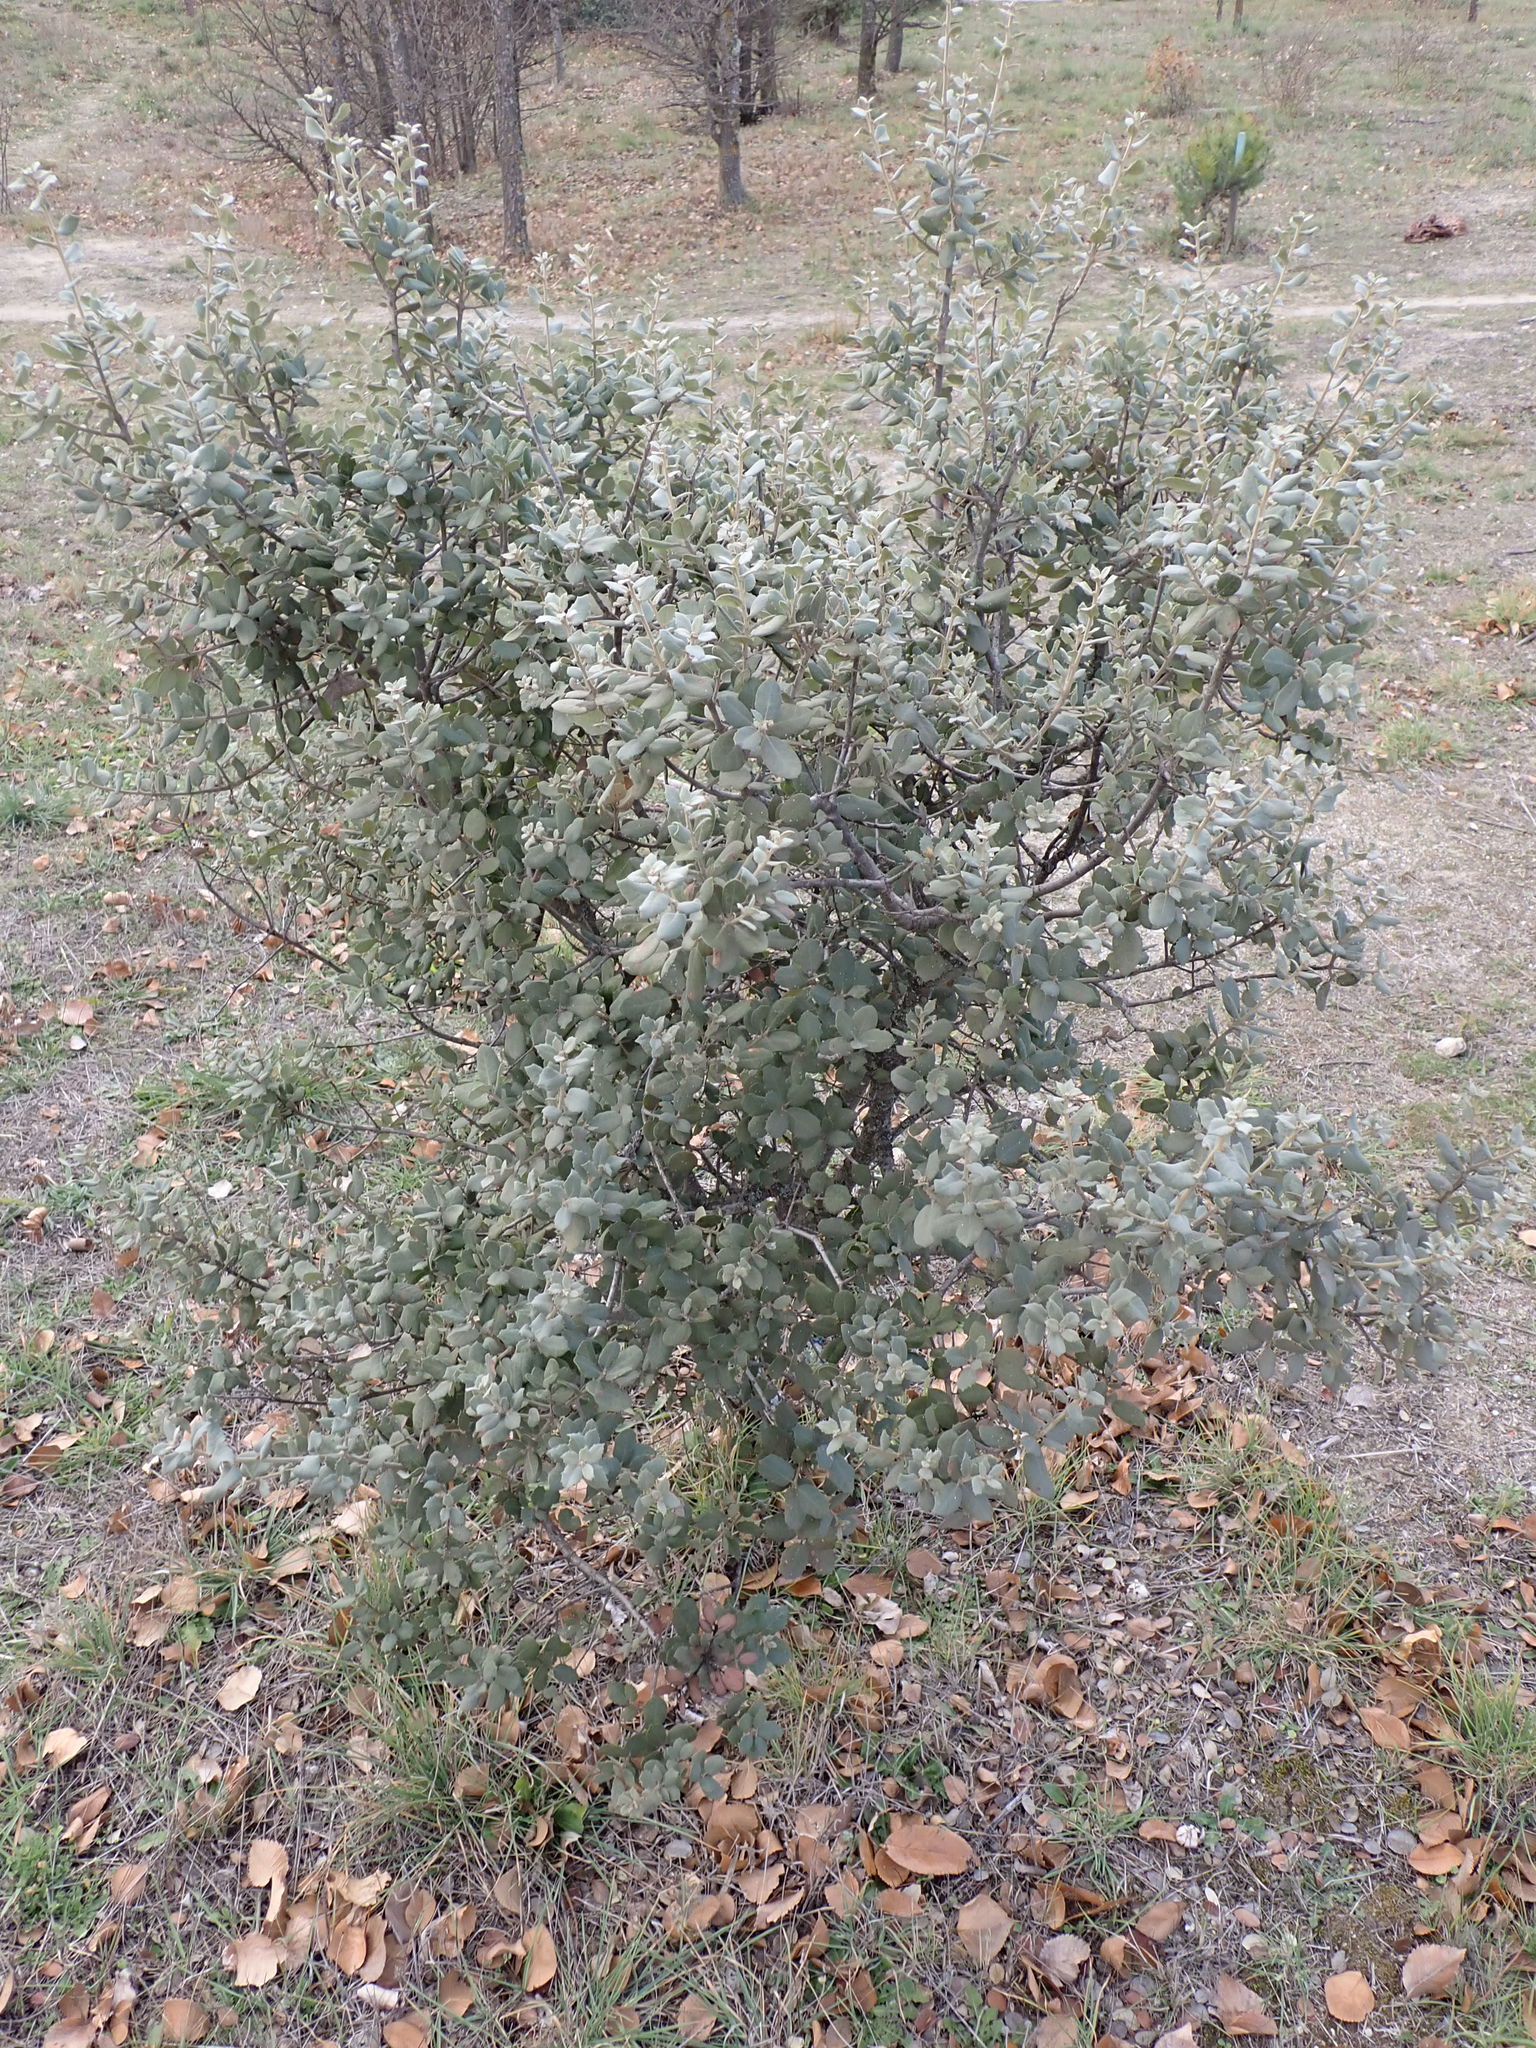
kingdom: Plantae
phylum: Tracheophyta
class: Magnoliopsida
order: Fagales
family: Fagaceae
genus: Quercus
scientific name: Quercus rotundifolia
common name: Holm oak
